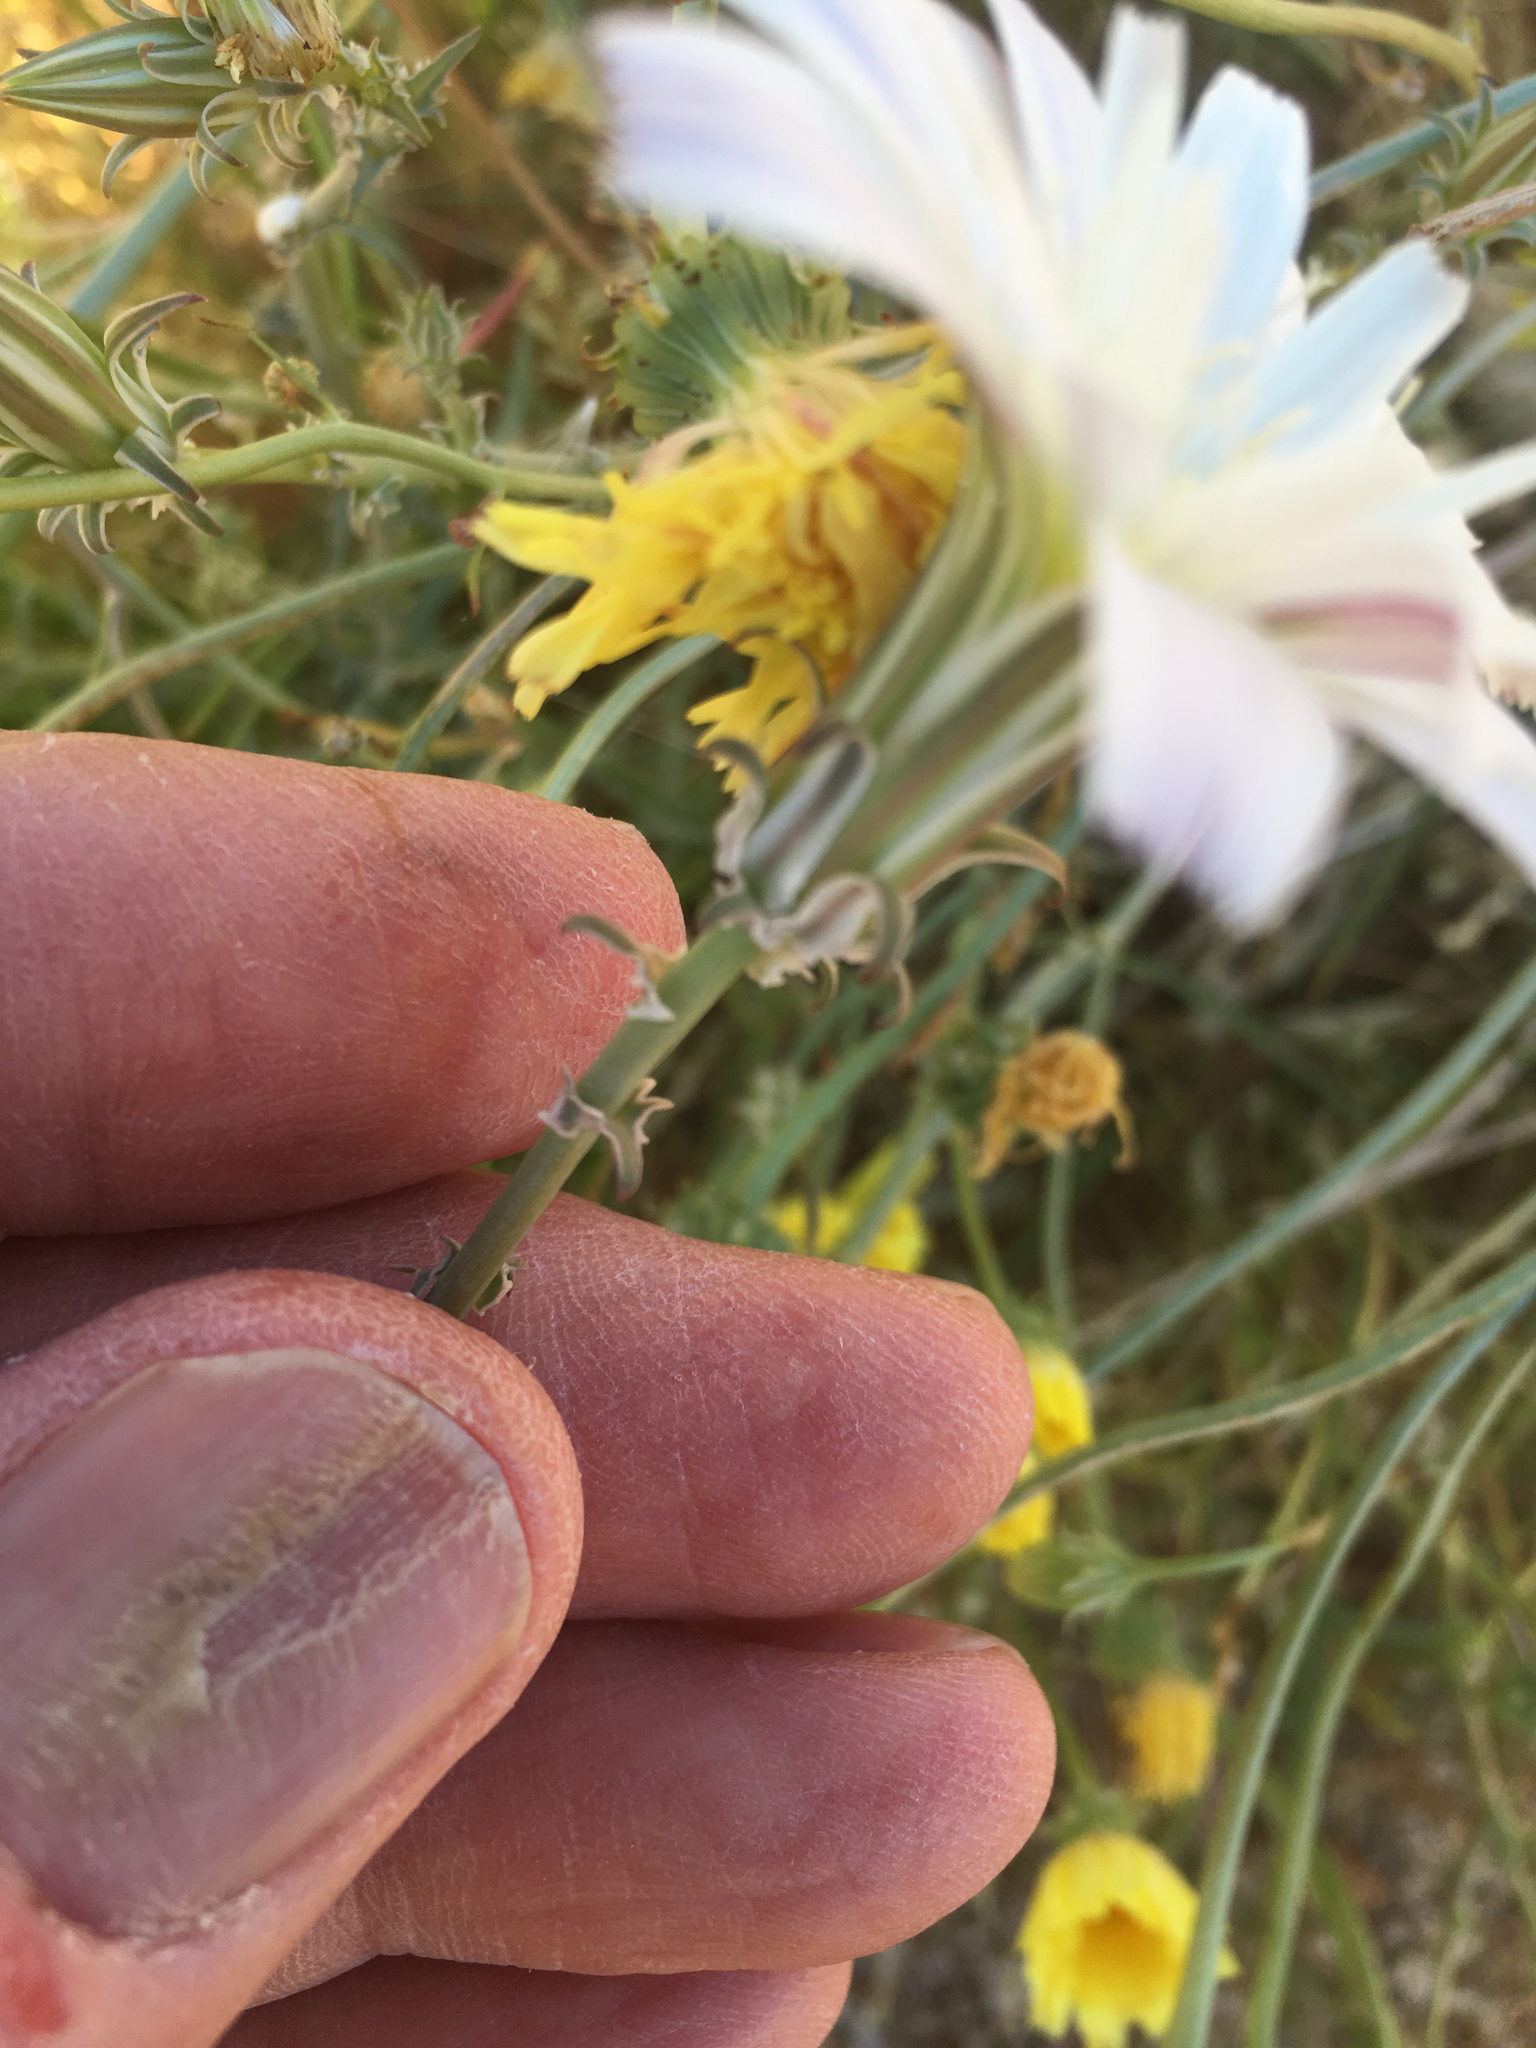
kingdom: Plantae
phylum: Tracheophyta
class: Magnoliopsida
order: Asterales
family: Asteraceae
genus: Rafinesquia
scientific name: Rafinesquia neomexicana
